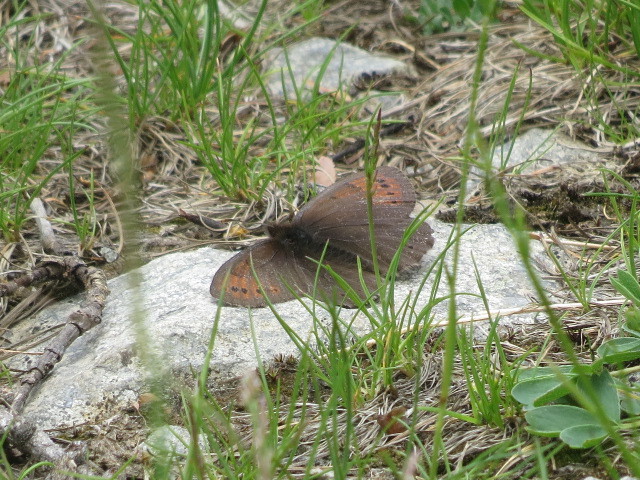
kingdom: Animalia
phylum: Arthropoda
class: Insecta
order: Lepidoptera
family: Nymphalidae
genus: Erebia
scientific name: Erebia pandrose
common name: Dewy ringlet
